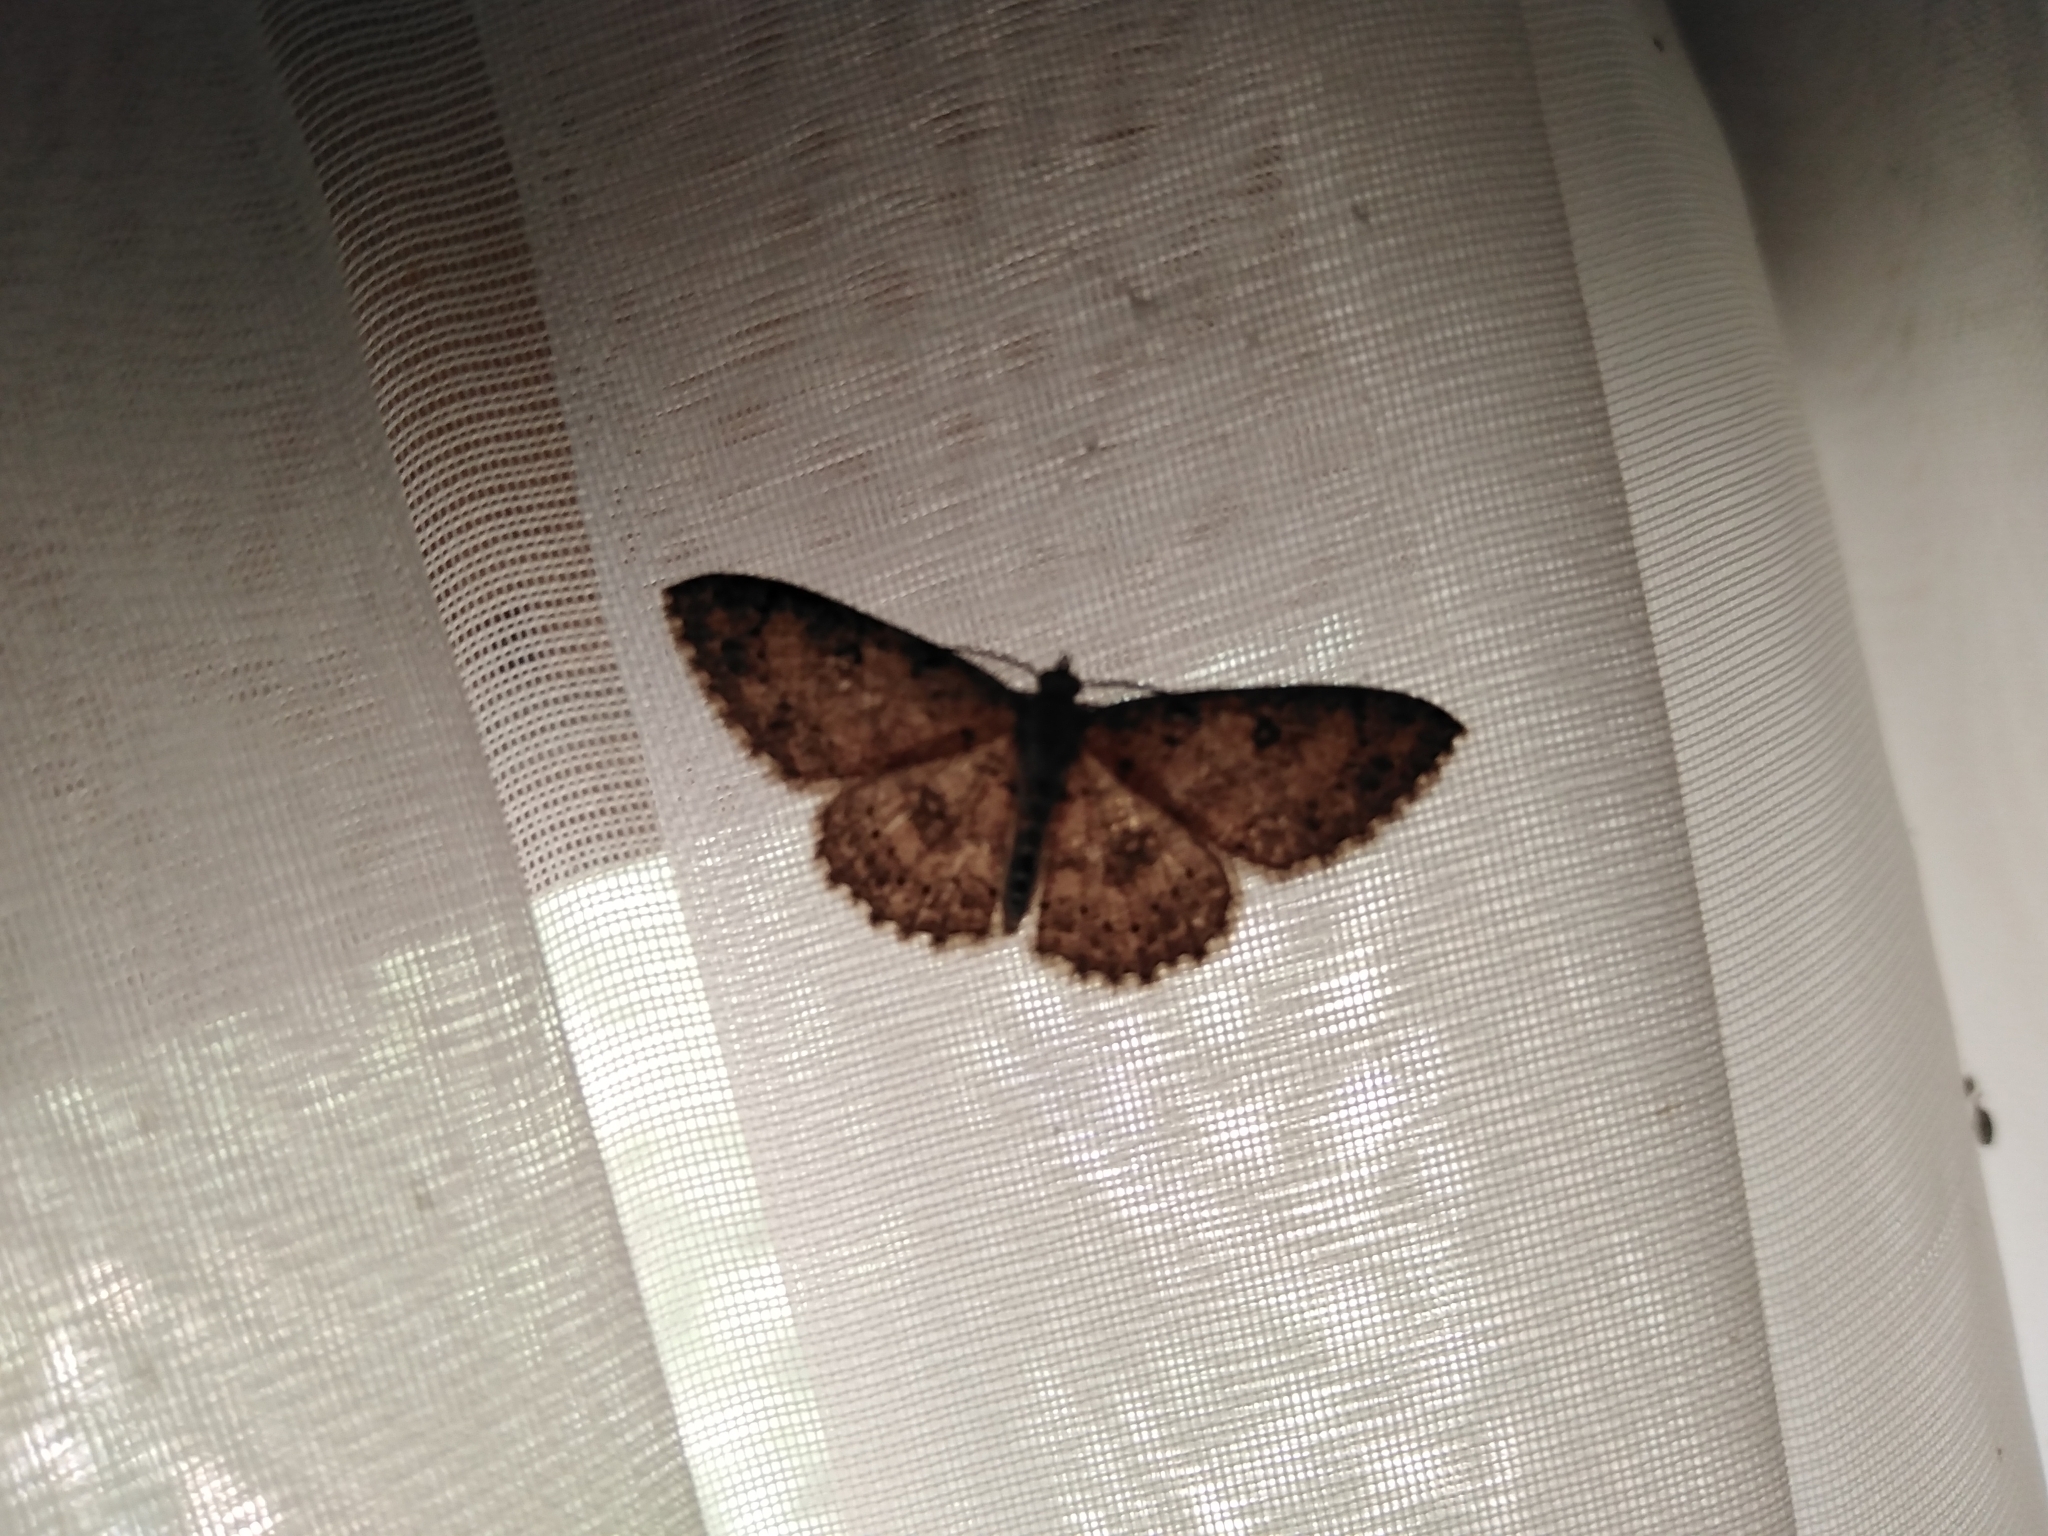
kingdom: Animalia
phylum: Arthropoda
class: Insecta
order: Lepidoptera
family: Geometridae
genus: Cyclophora
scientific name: Cyclophora nanaria
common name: Cankerworm
